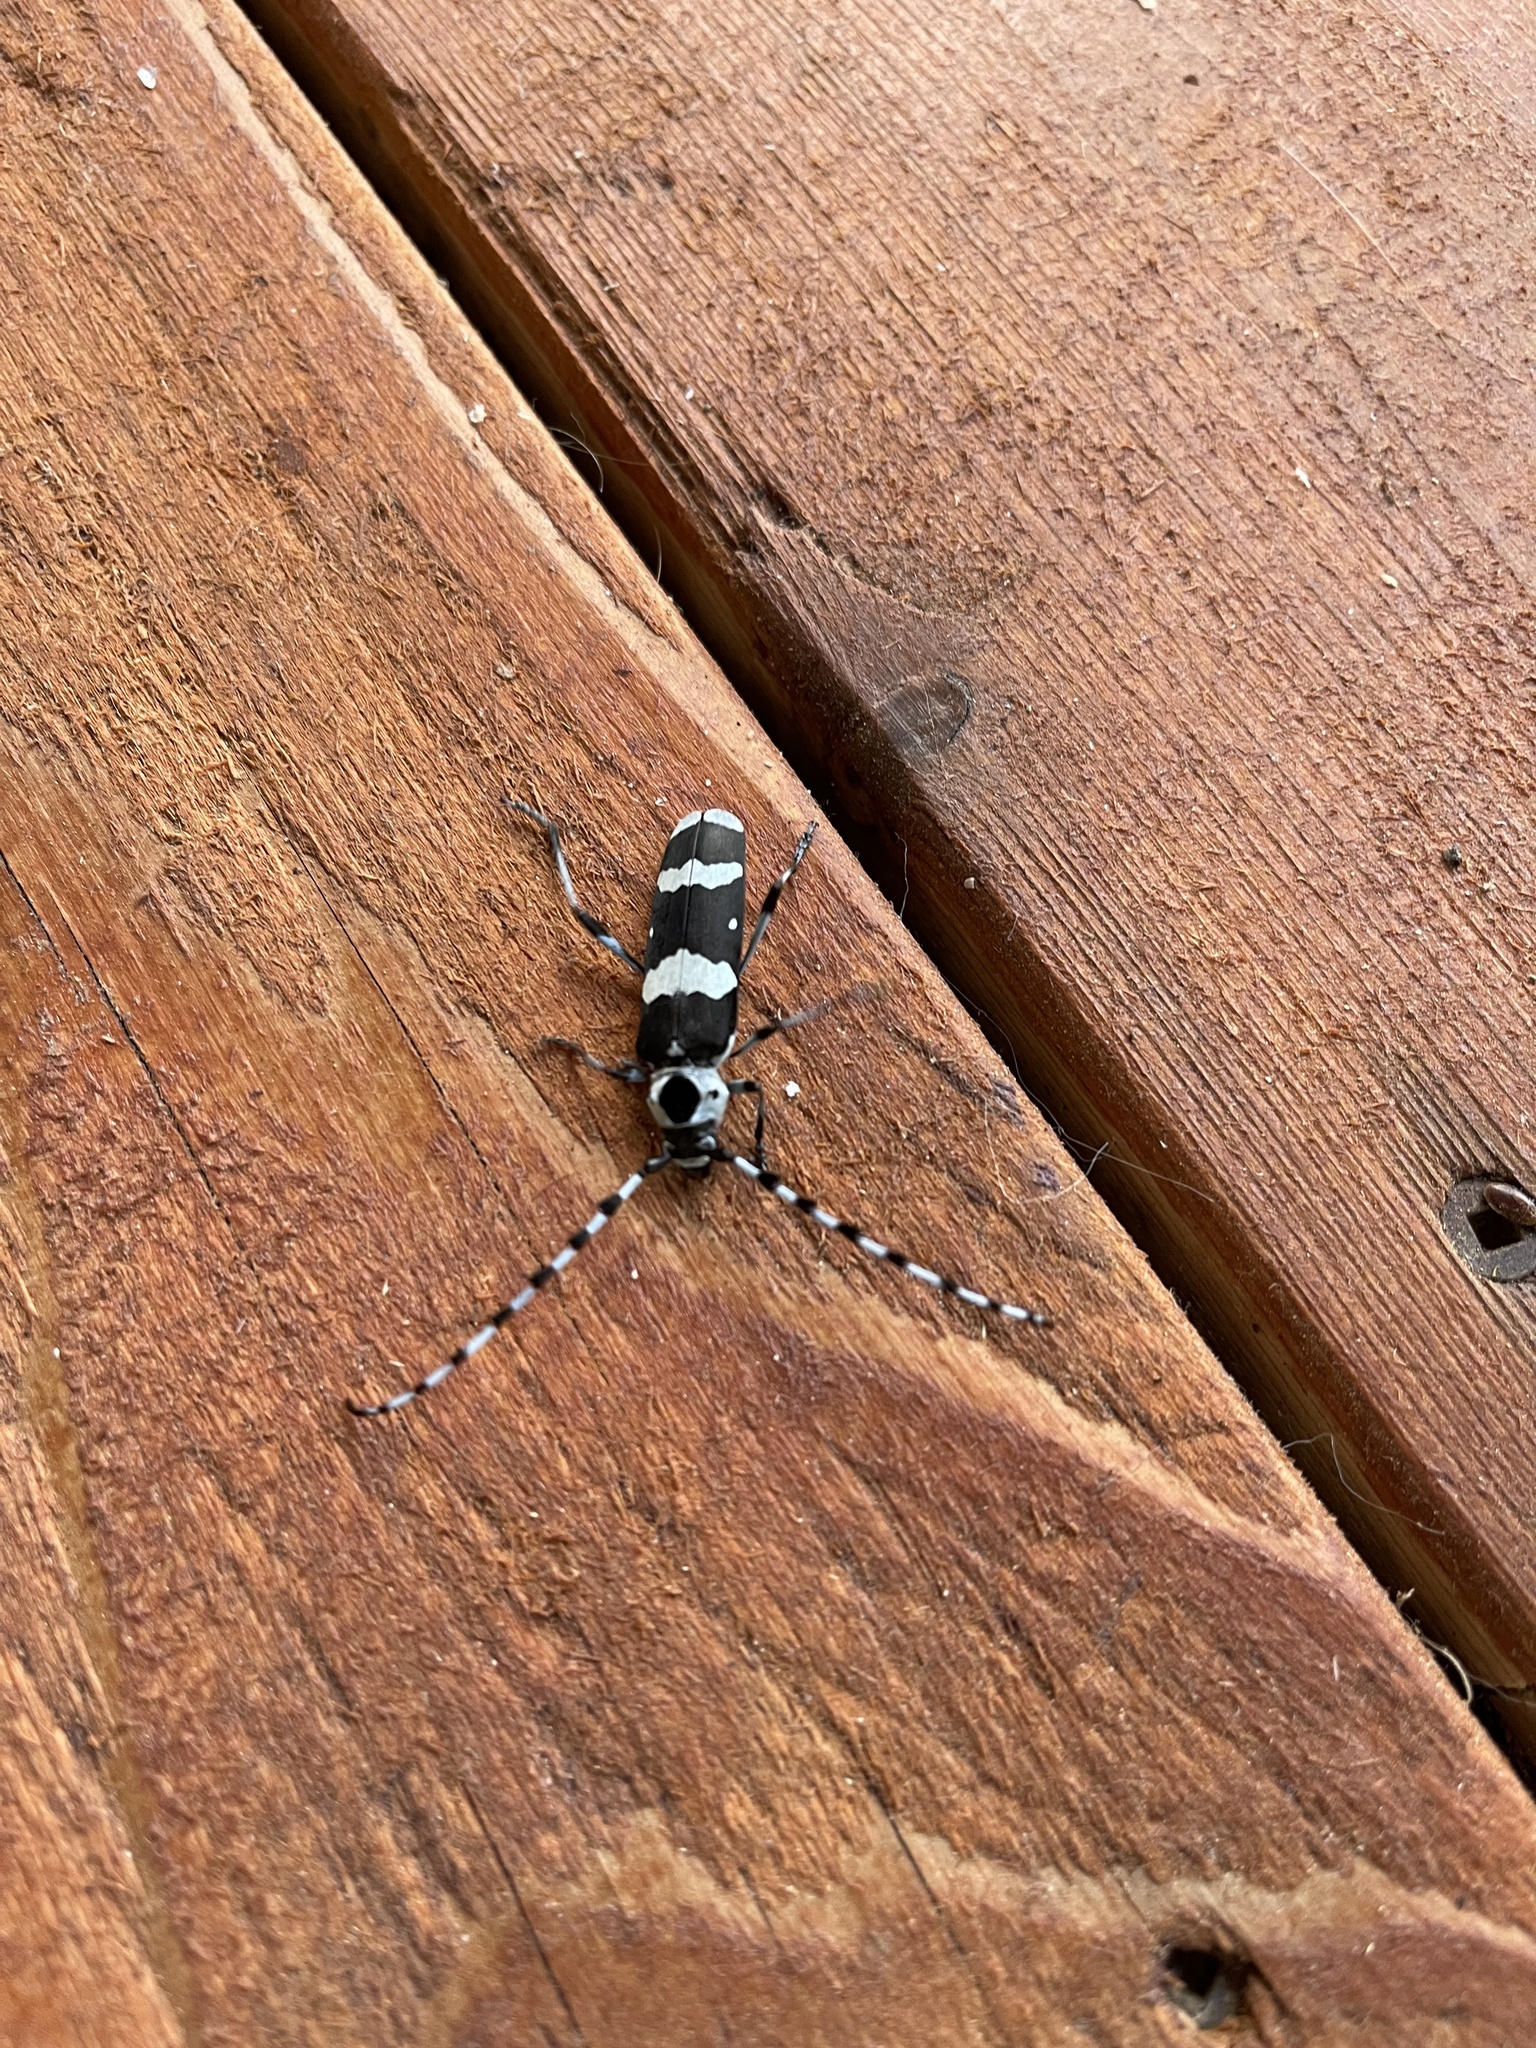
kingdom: Animalia
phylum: Arthropoda
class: Insecta
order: Coleoptera
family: Cerambycidae
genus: Rosalia
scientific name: Rosalia funebris
